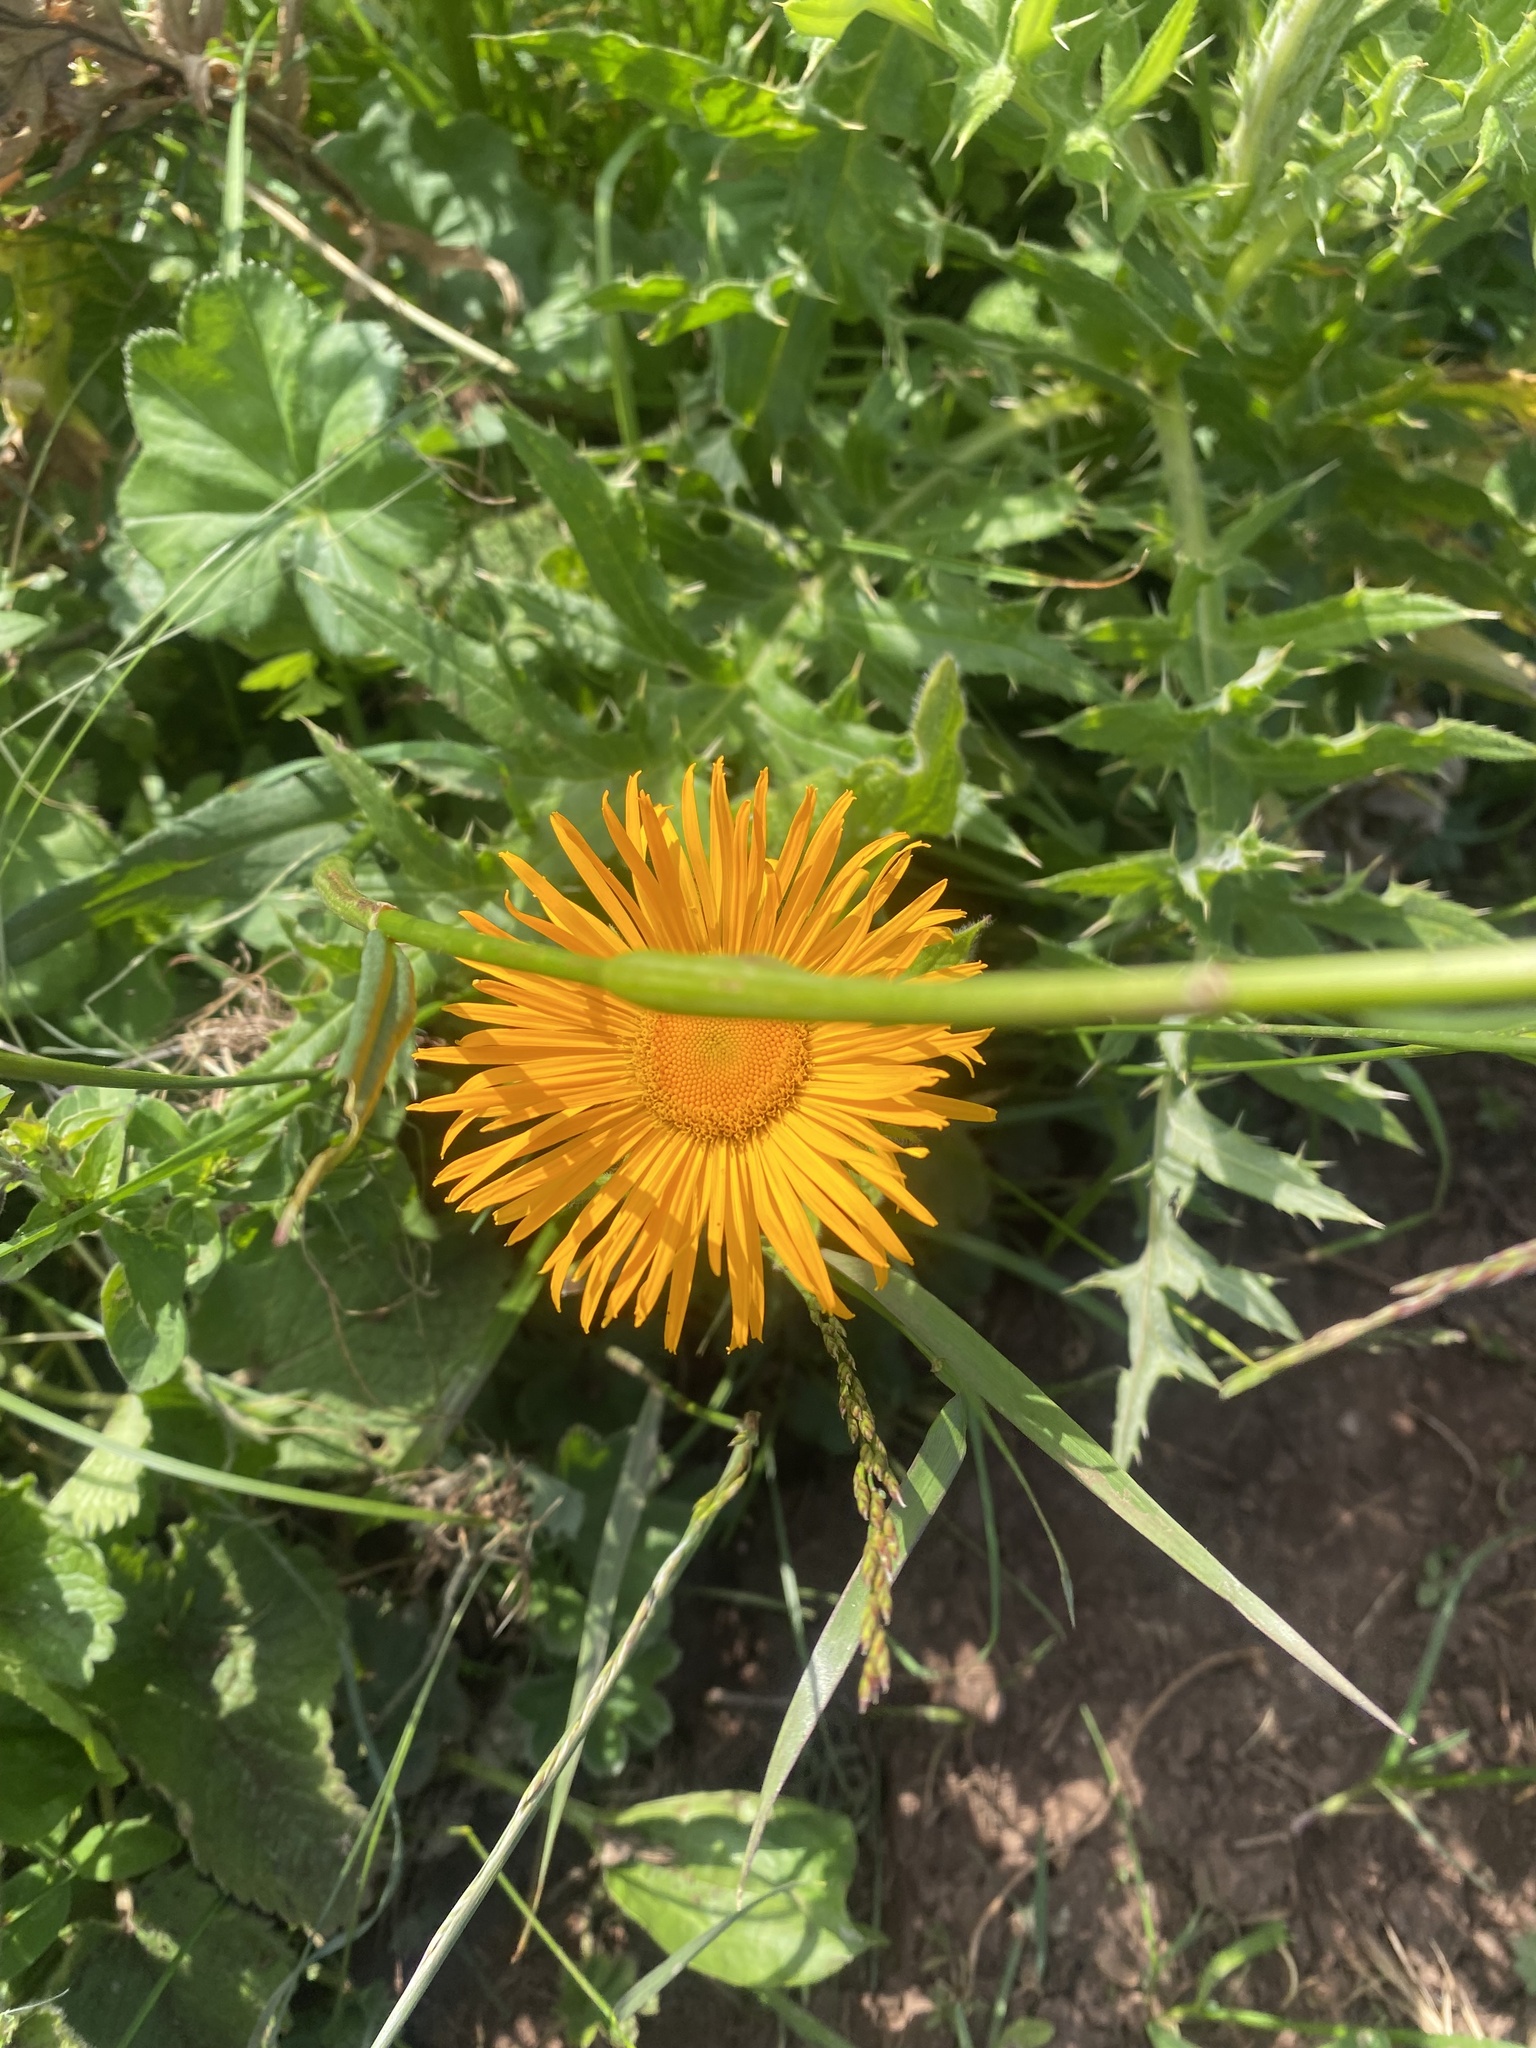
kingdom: Plantae
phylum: Tracheophyta
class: Magnoliopsida
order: Asterales
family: Asteraceae
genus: Pentanema
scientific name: Pentanema orientale
